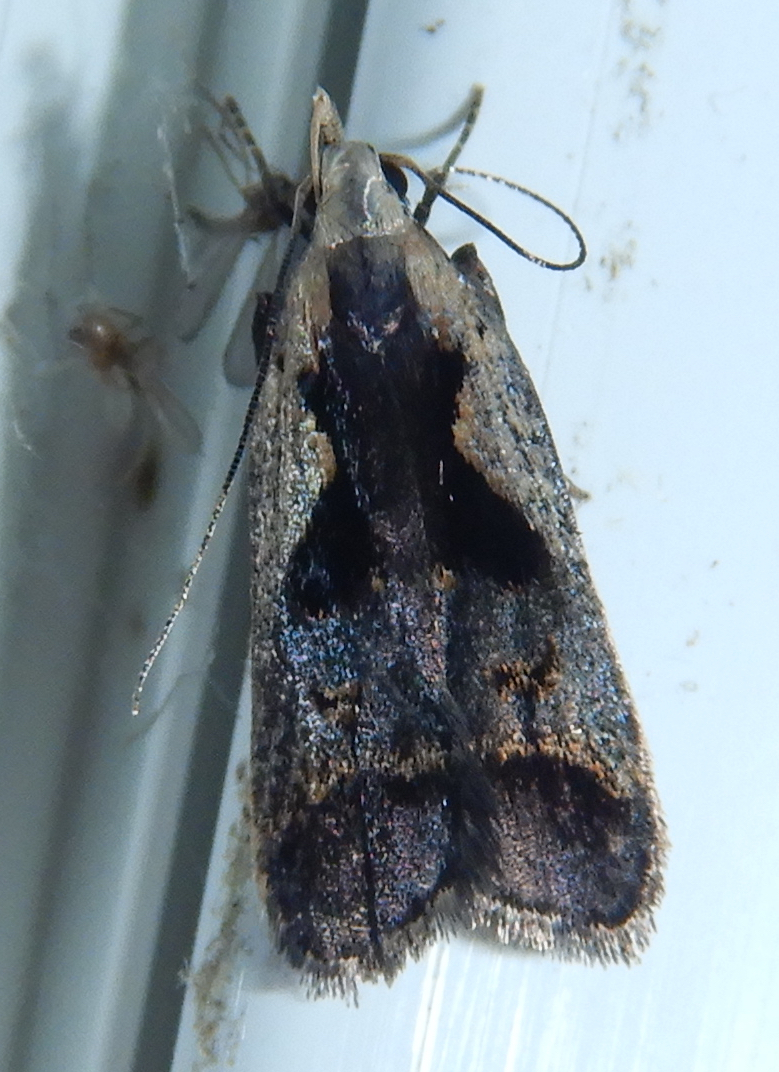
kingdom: Animalia
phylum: Arthropoda
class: Insecta
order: Lepidoptera
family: Gelechiidae
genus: Dichomeris
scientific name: Dichomeris bilobella
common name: Bilobed dichomeris moth
